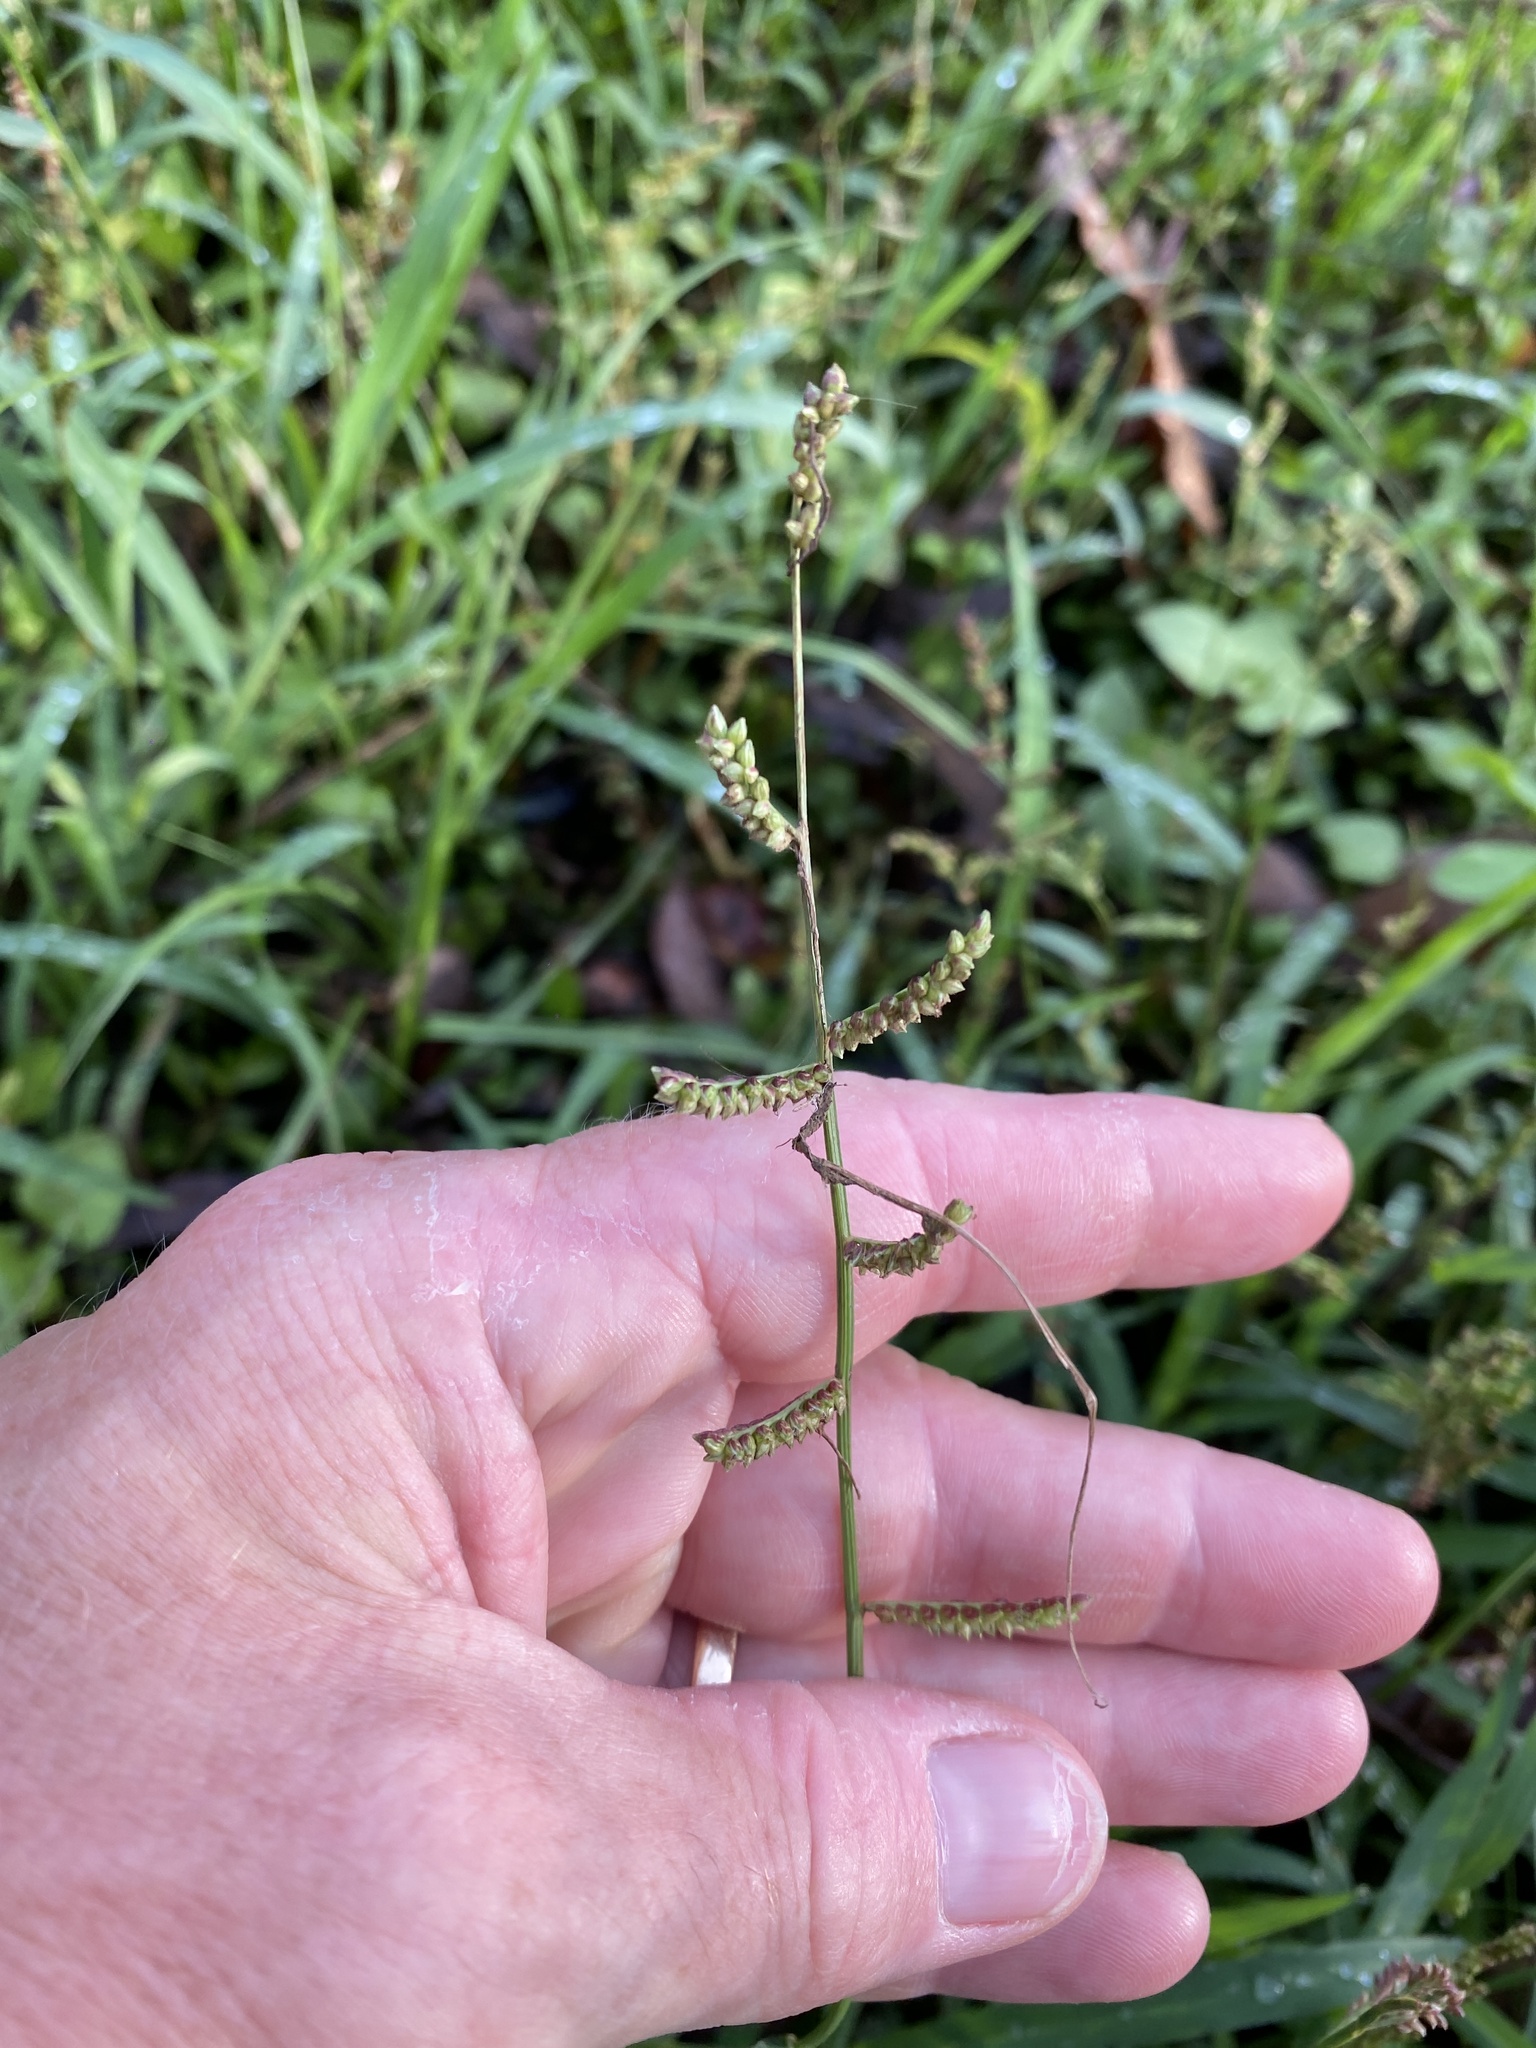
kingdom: Plantae
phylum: Tracheophyta
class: Liliopsida
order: Poales
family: Poaceae
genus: Echinochloa
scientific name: Echinochloa colonum
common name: Jungle rice
